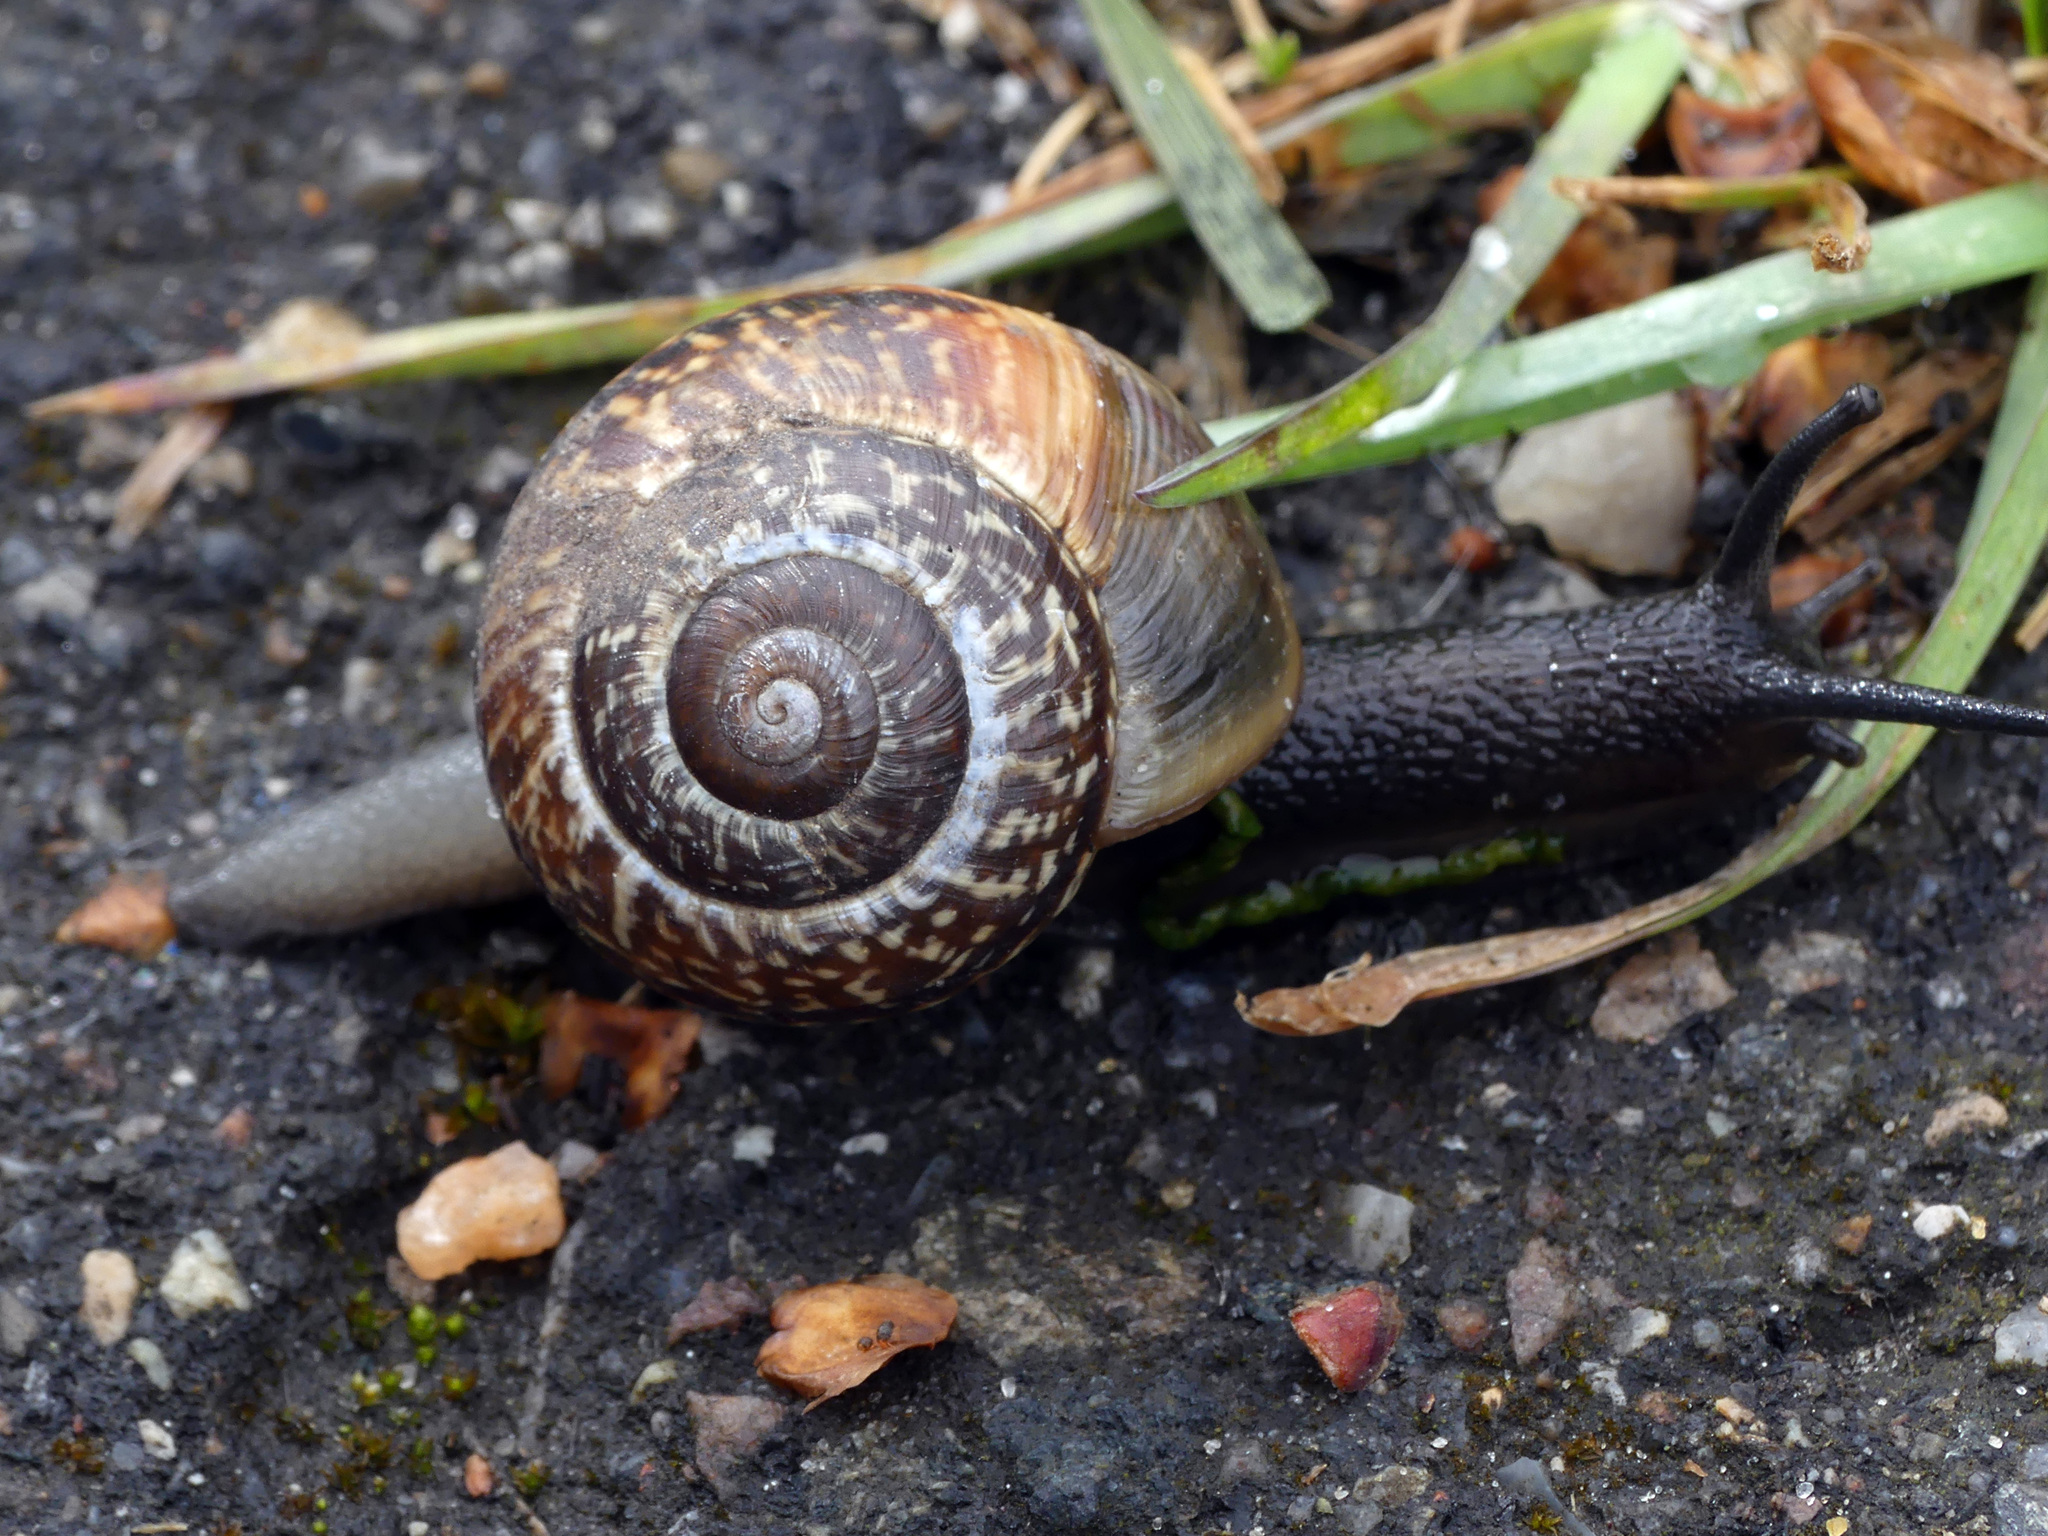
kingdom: Animalia
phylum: Mollusca
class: Gastropoda
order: Stylommatophora
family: Helicidae
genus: Arianta
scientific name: Arianta arbustorum
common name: Copse snail
